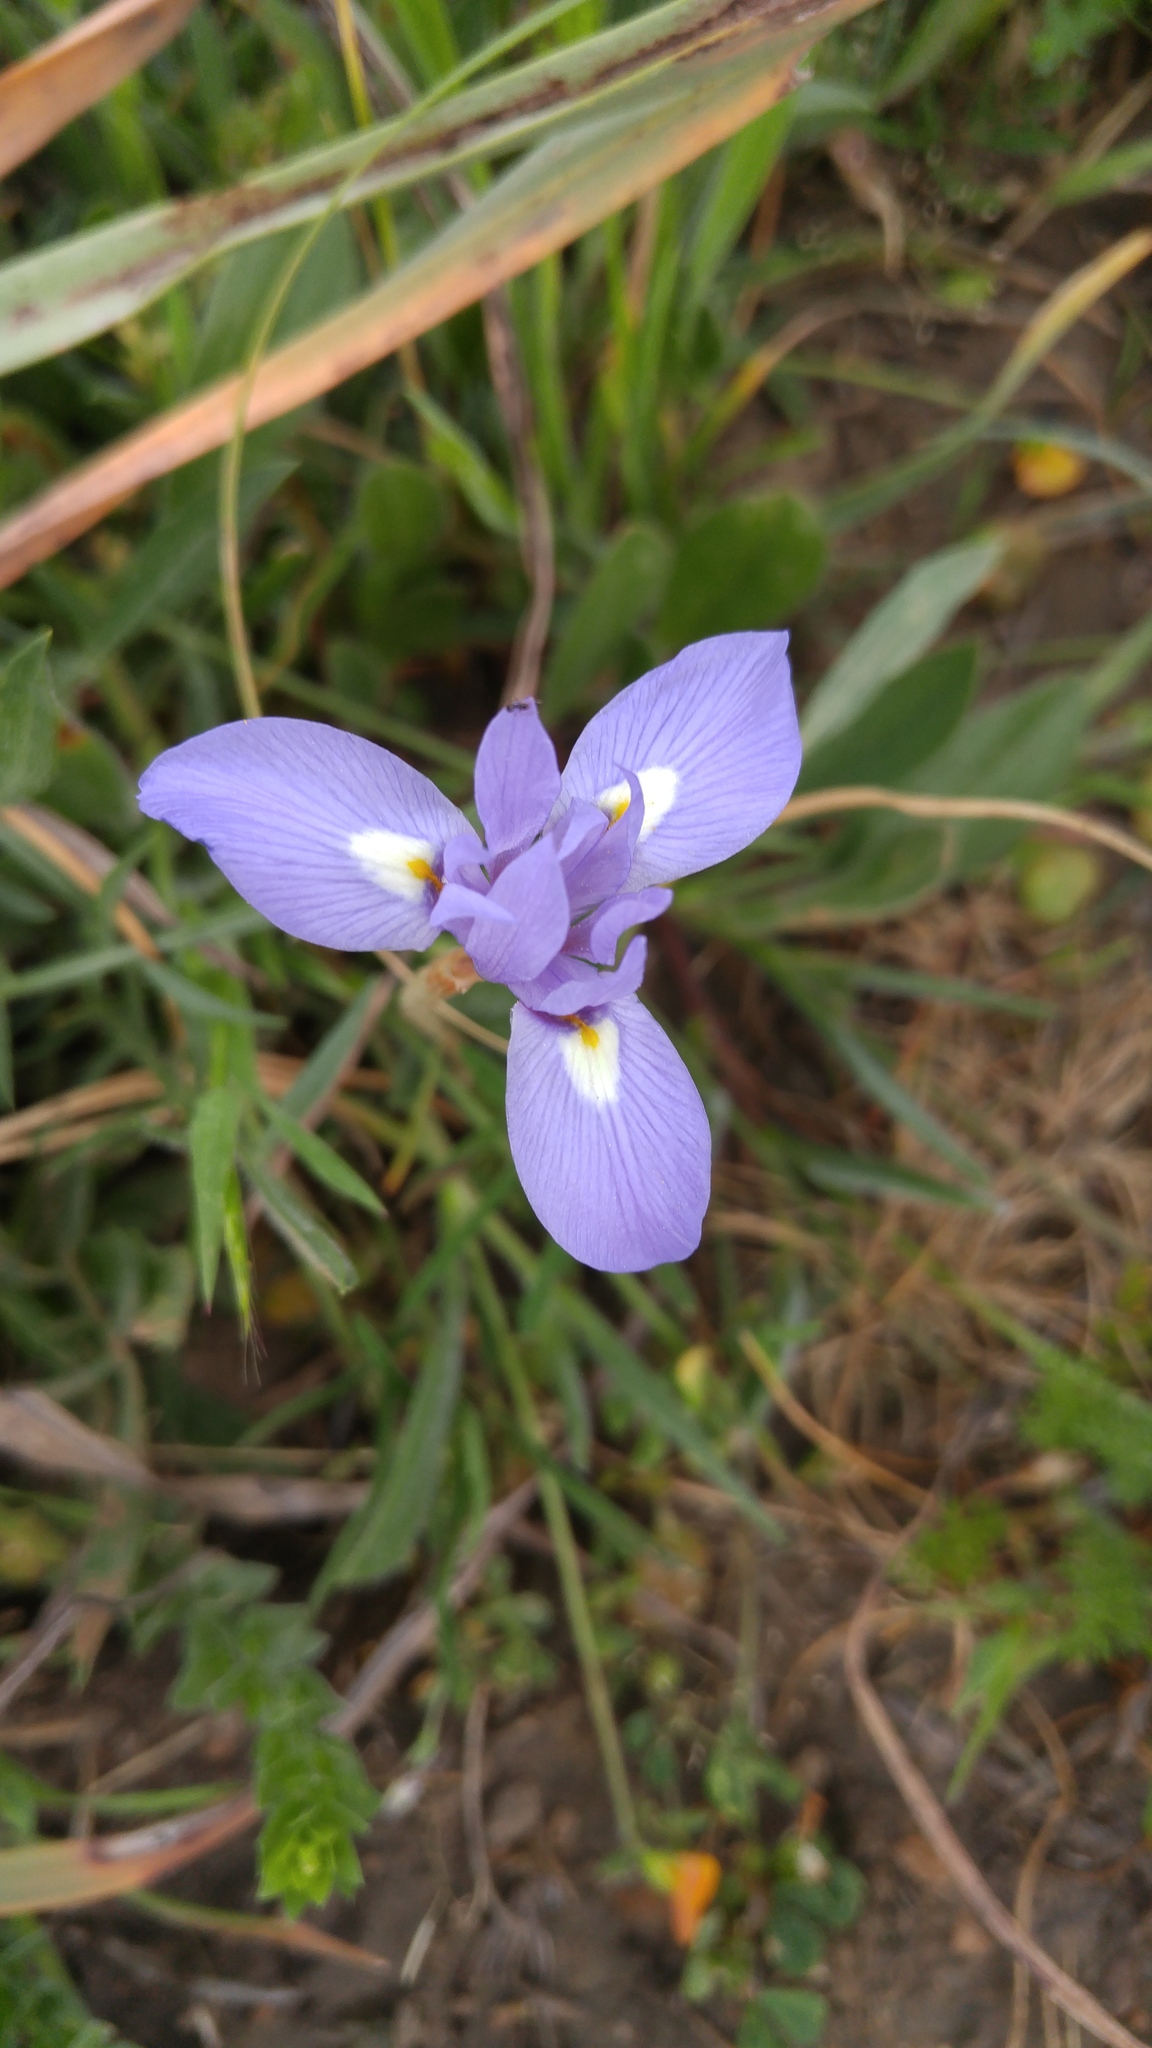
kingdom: Plantae
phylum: Tracheophyta
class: Liliopsida
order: Asparagales
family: Iridaceae
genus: Moraea
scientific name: Moraea sisyrinchium
